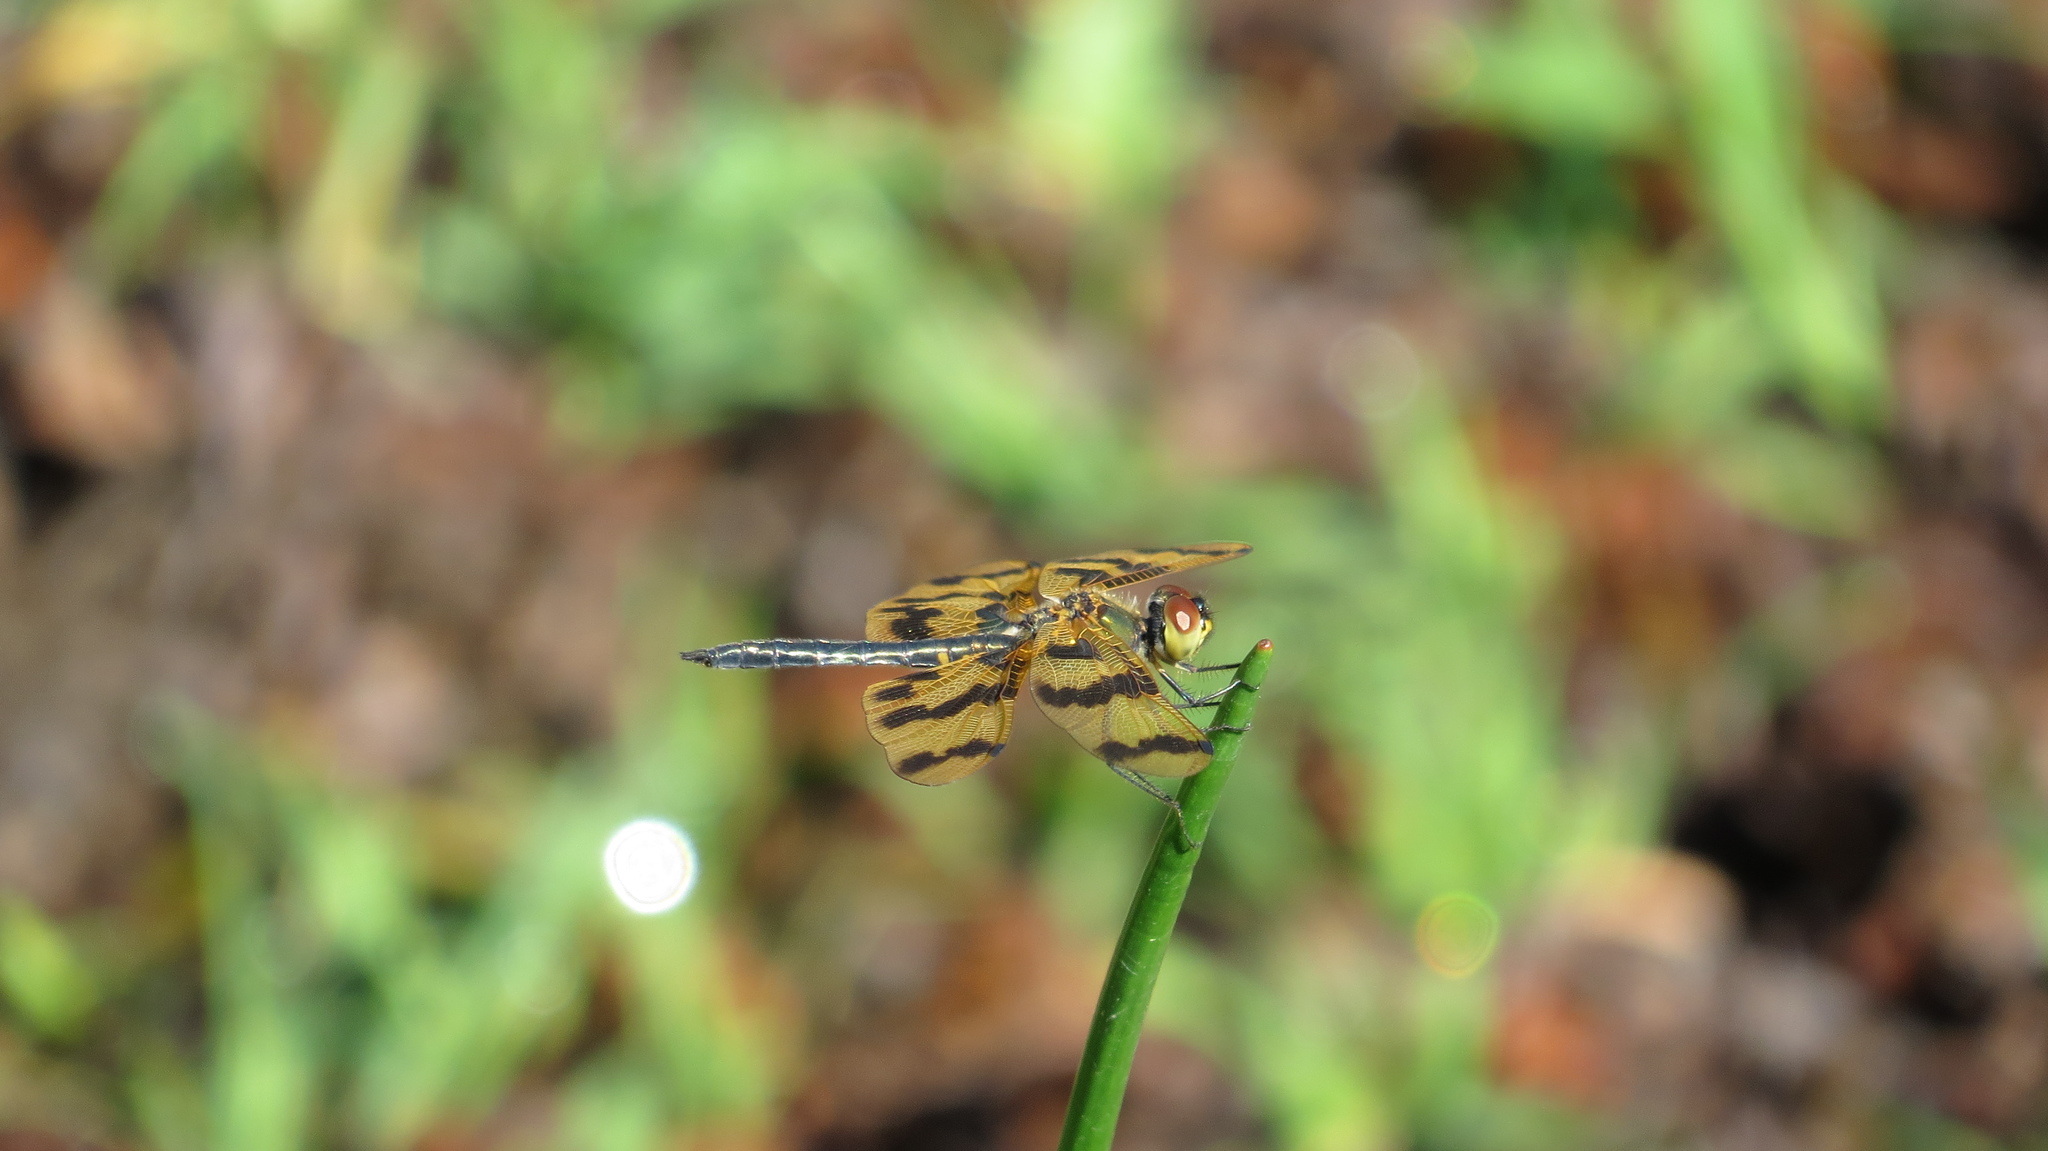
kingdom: Animalia
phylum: Arthropoda
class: Insecta
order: Odonata
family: Libellulidae
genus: Rhyothemis
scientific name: Rhyothemis graphiptera
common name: Graphic flutterer
